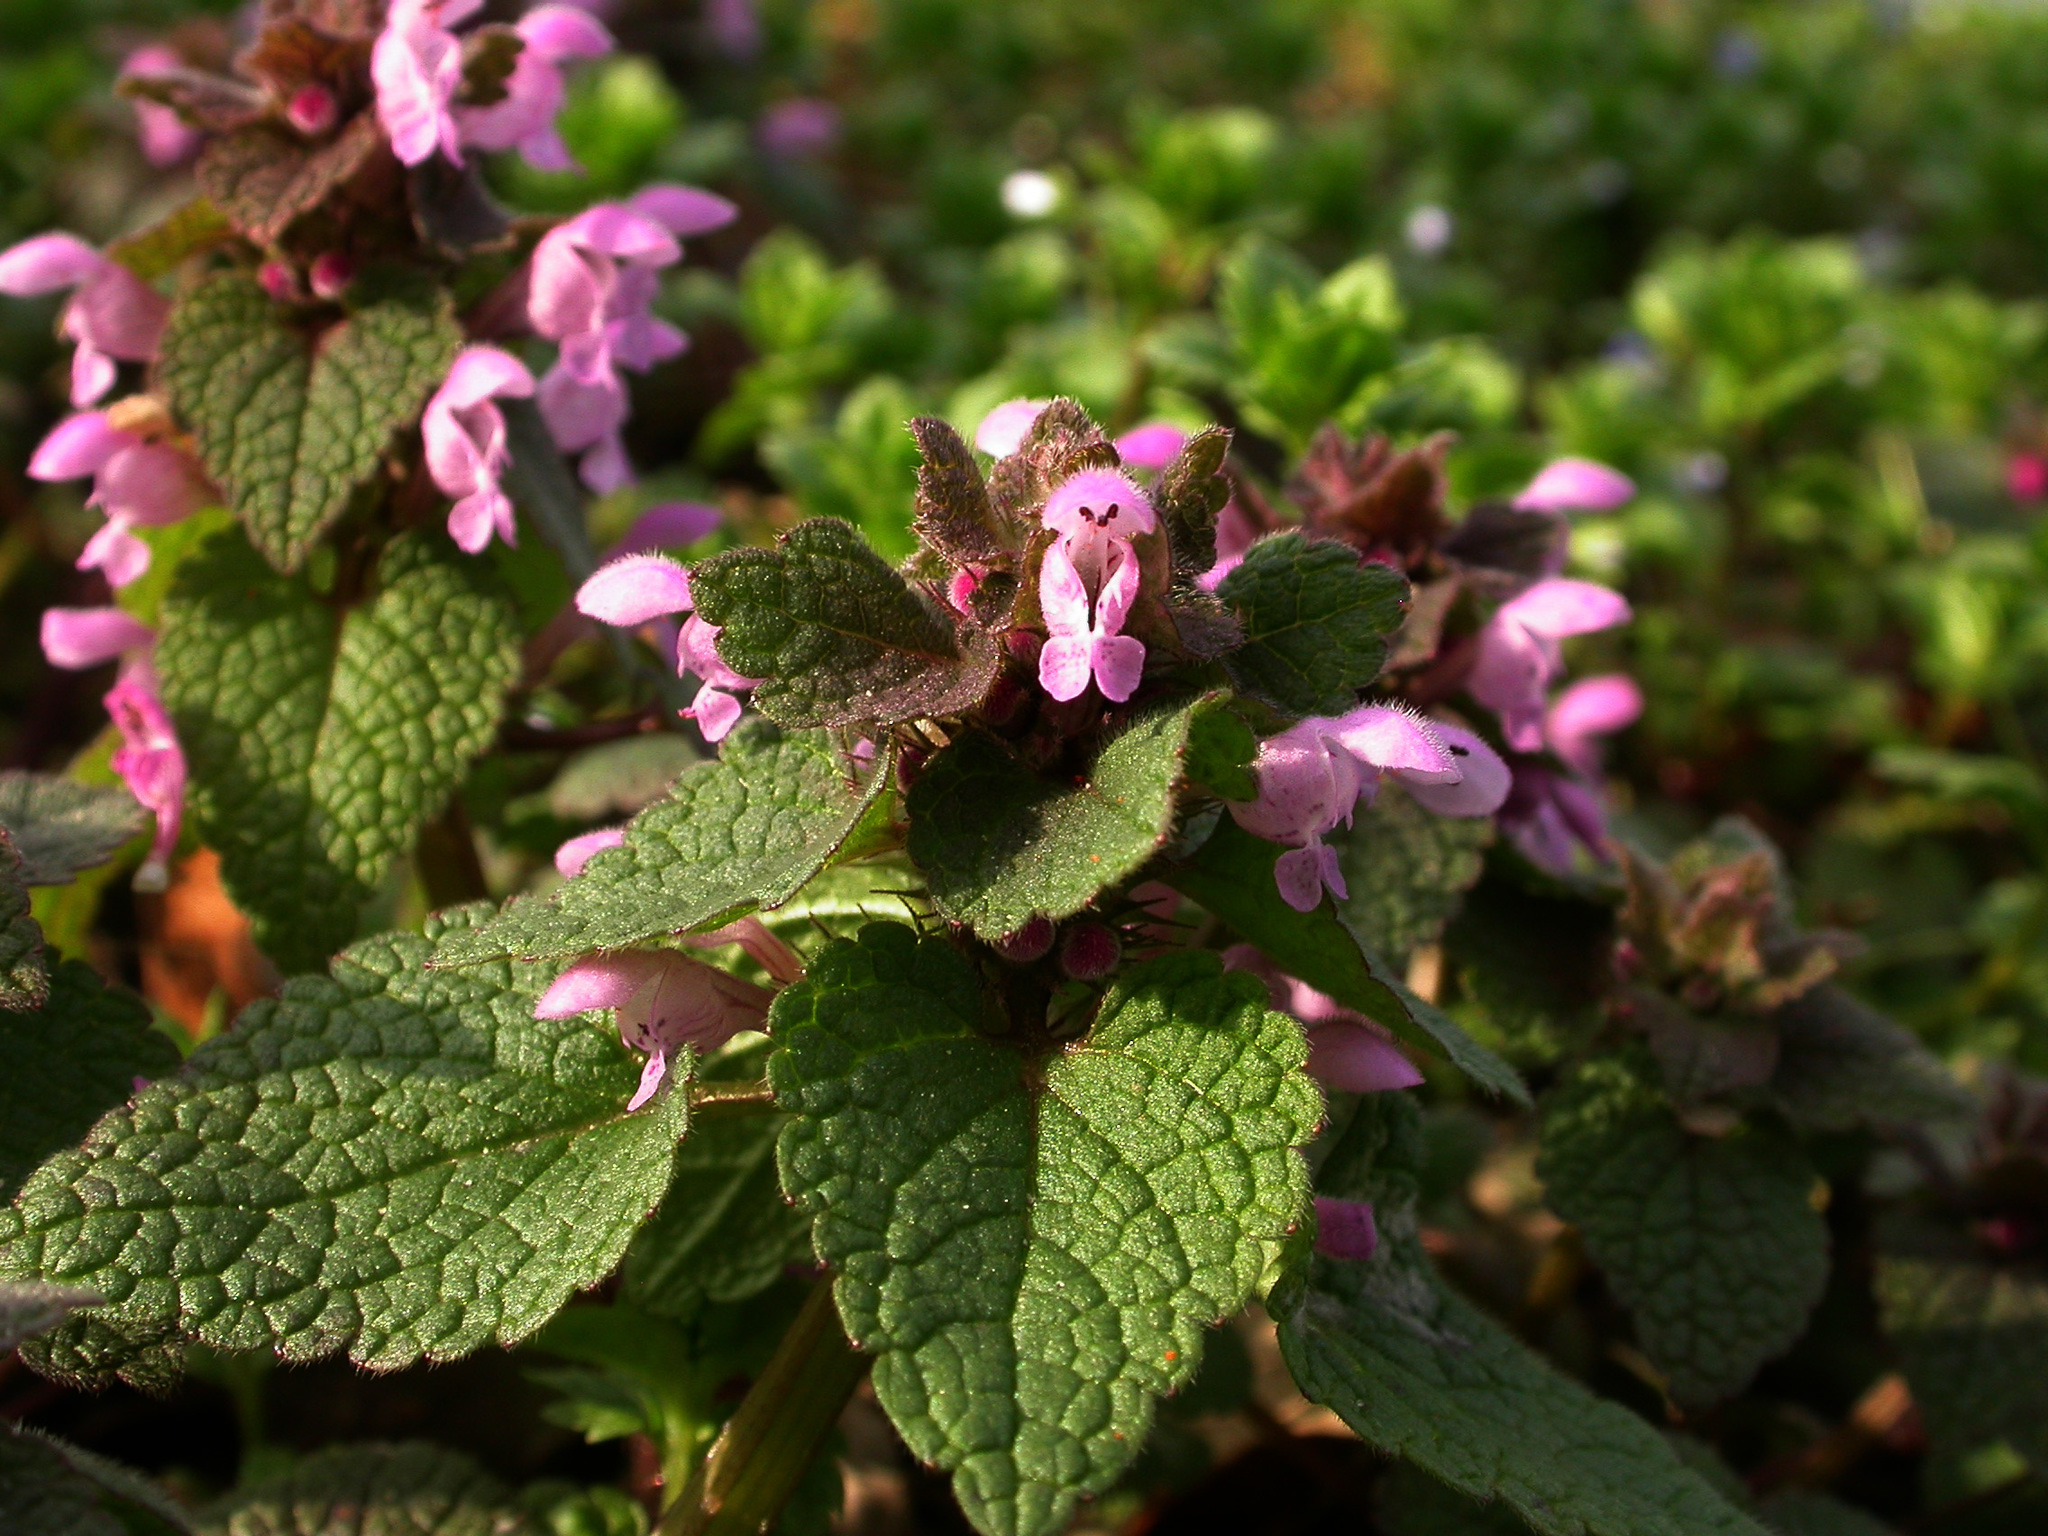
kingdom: Plantae
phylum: Tracheophyta
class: Magnoliopsida
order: Lamiales
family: Lamiaceae
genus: Lamium
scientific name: Lamium purpureum
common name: Red dead-nettle
